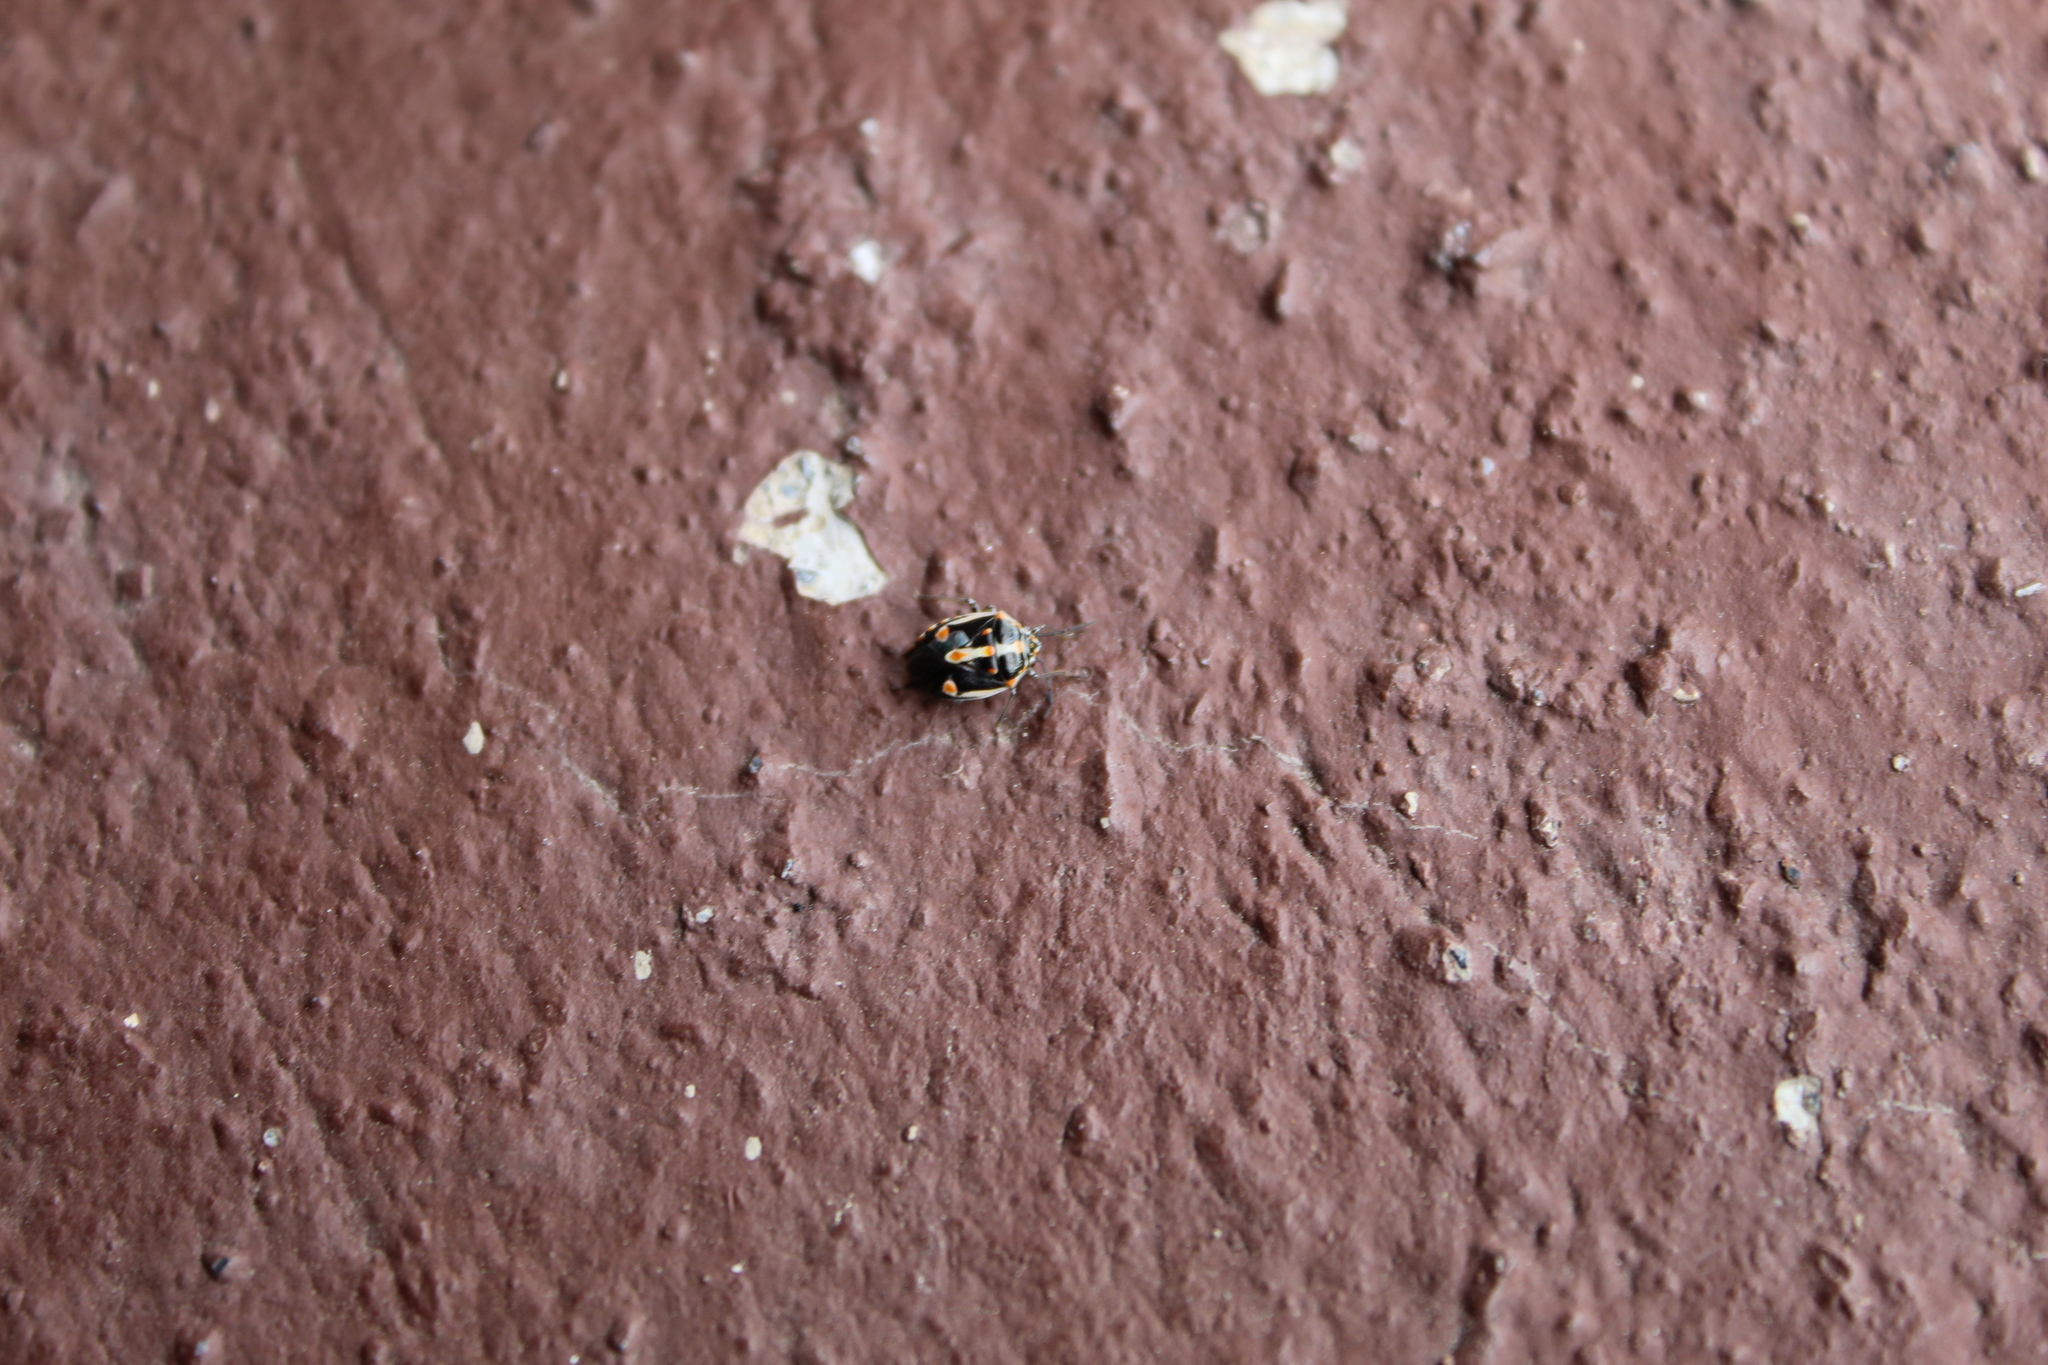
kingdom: Animalia
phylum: Arthropoda
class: Insecta
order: Hemiptera
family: Pentatomidae
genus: Bagrada
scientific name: Bagrada hilaris
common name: Bagrada bug
